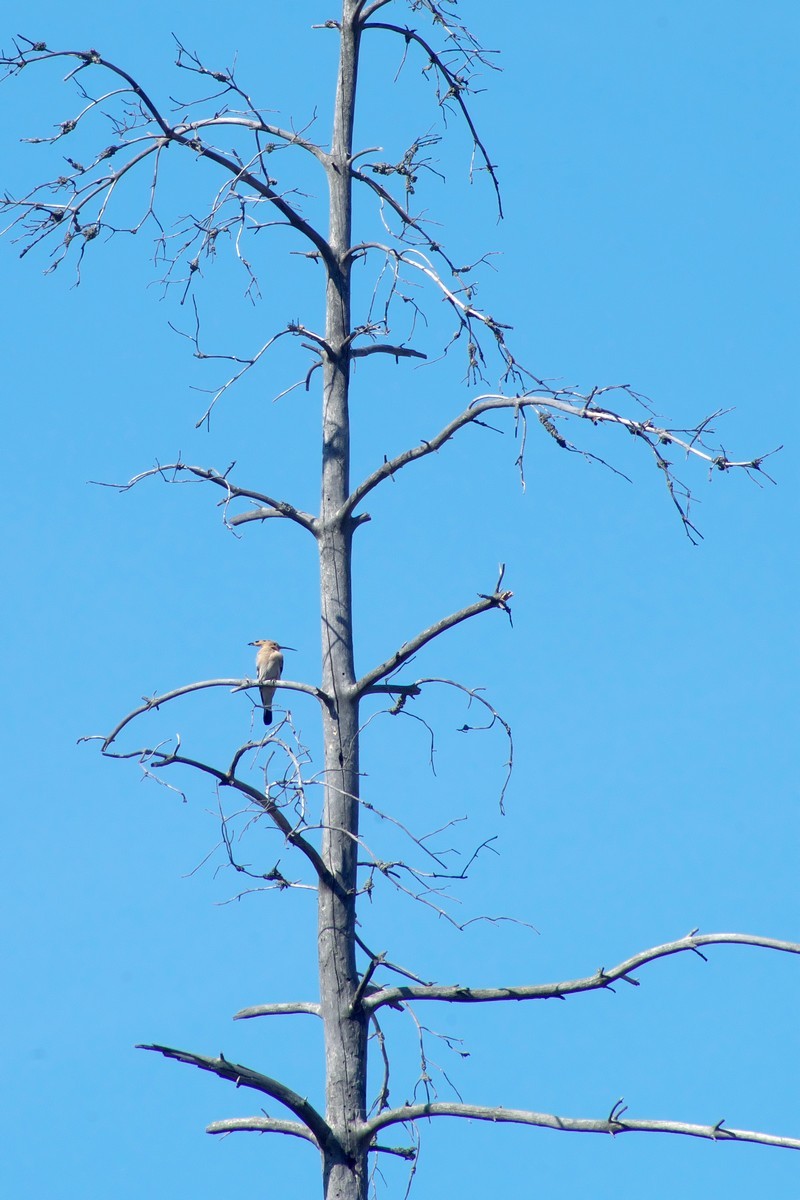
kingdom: Animalia
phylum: Chordata
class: Aves
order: Bucerotiformes
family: Upupidae
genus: Upupa
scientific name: Upupa epops
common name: Eurasian hoopoe
